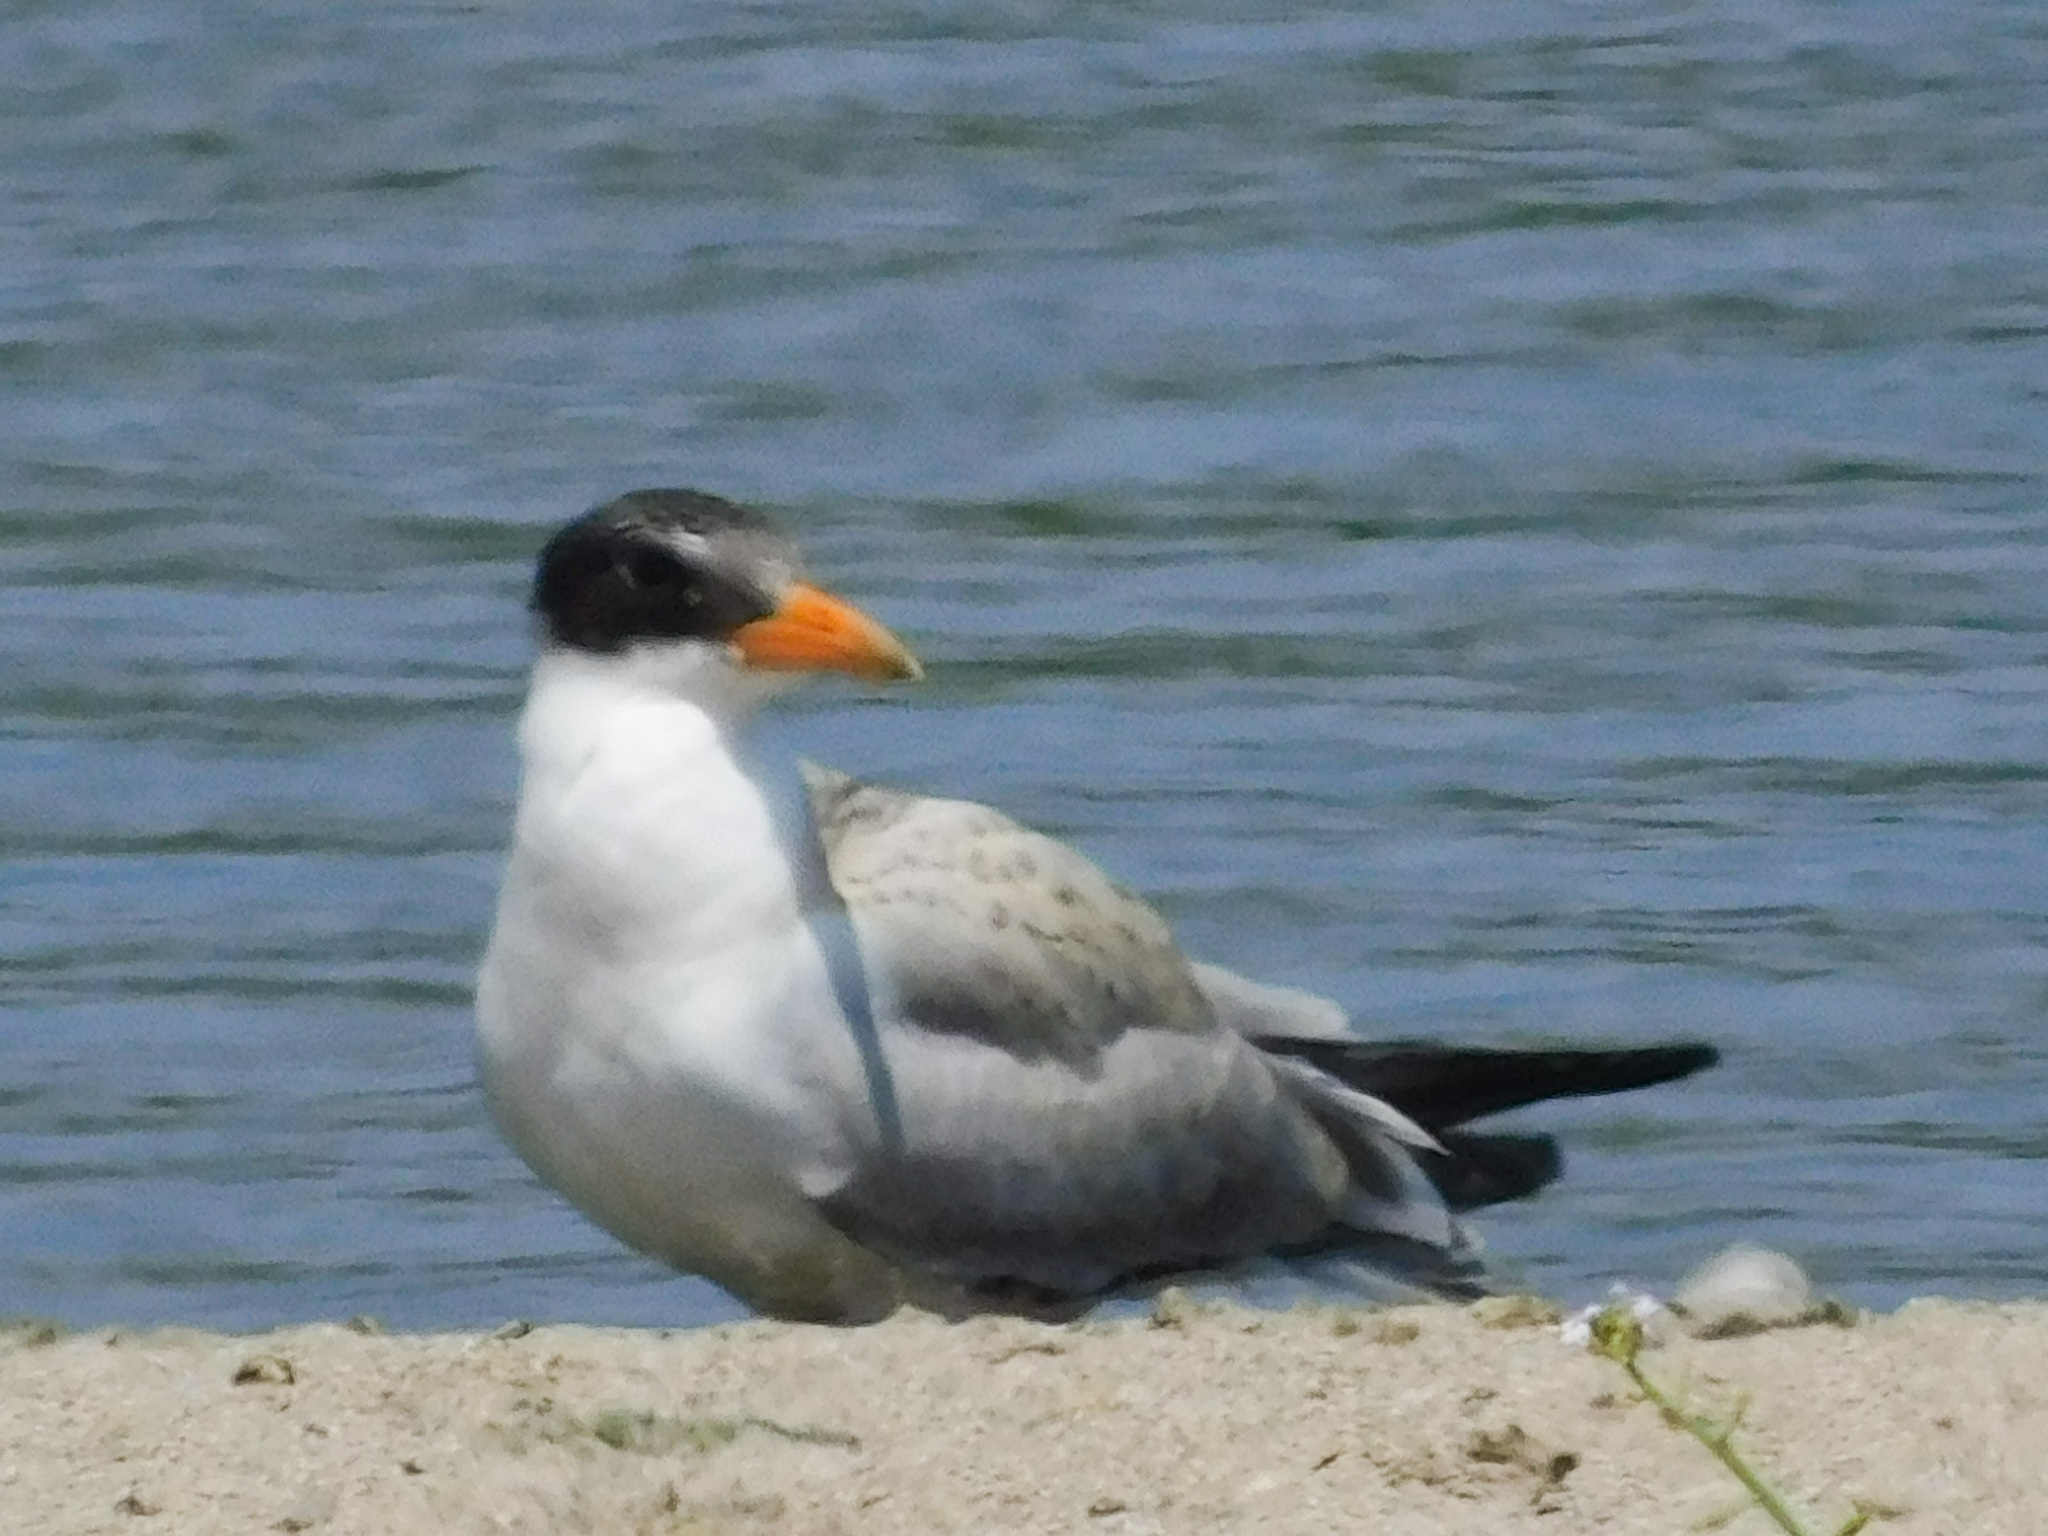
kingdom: Animalia
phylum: Chordata
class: Aves
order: Charadriiformes
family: Laridae
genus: Hydroprogne
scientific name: Hydroprogne caspia
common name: Caspian tern
